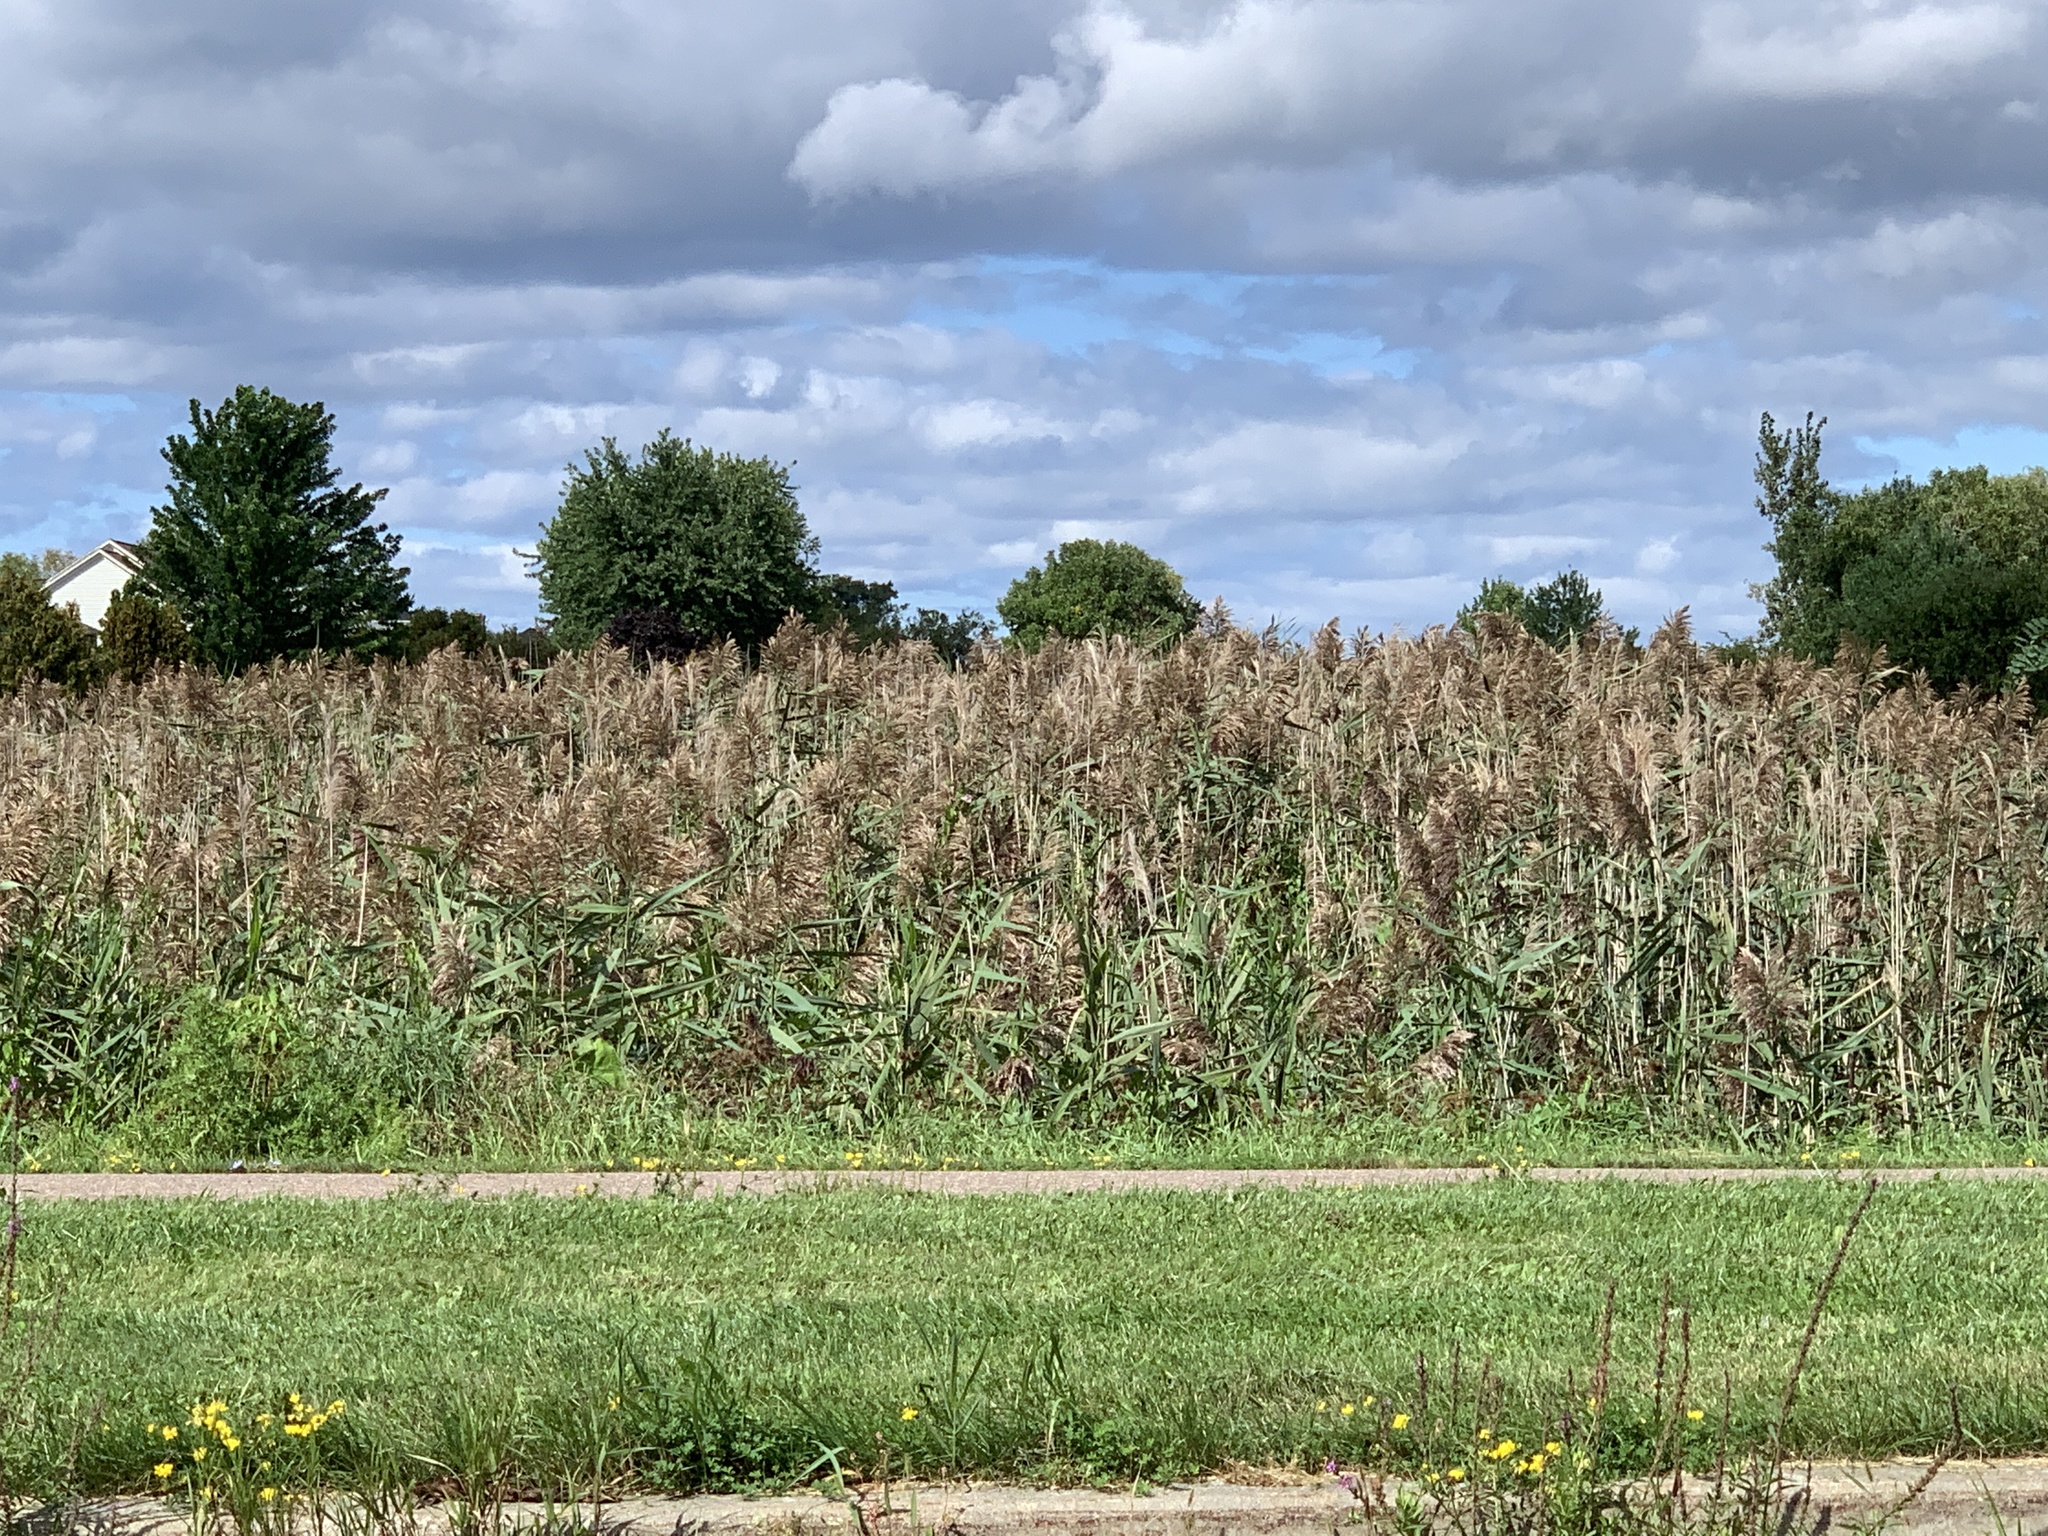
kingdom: Plantae
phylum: Tracheophyta
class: Liliopsida
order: Poales
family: Poaceae
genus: Phragmites
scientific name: Phragmites australis
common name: Common reed
